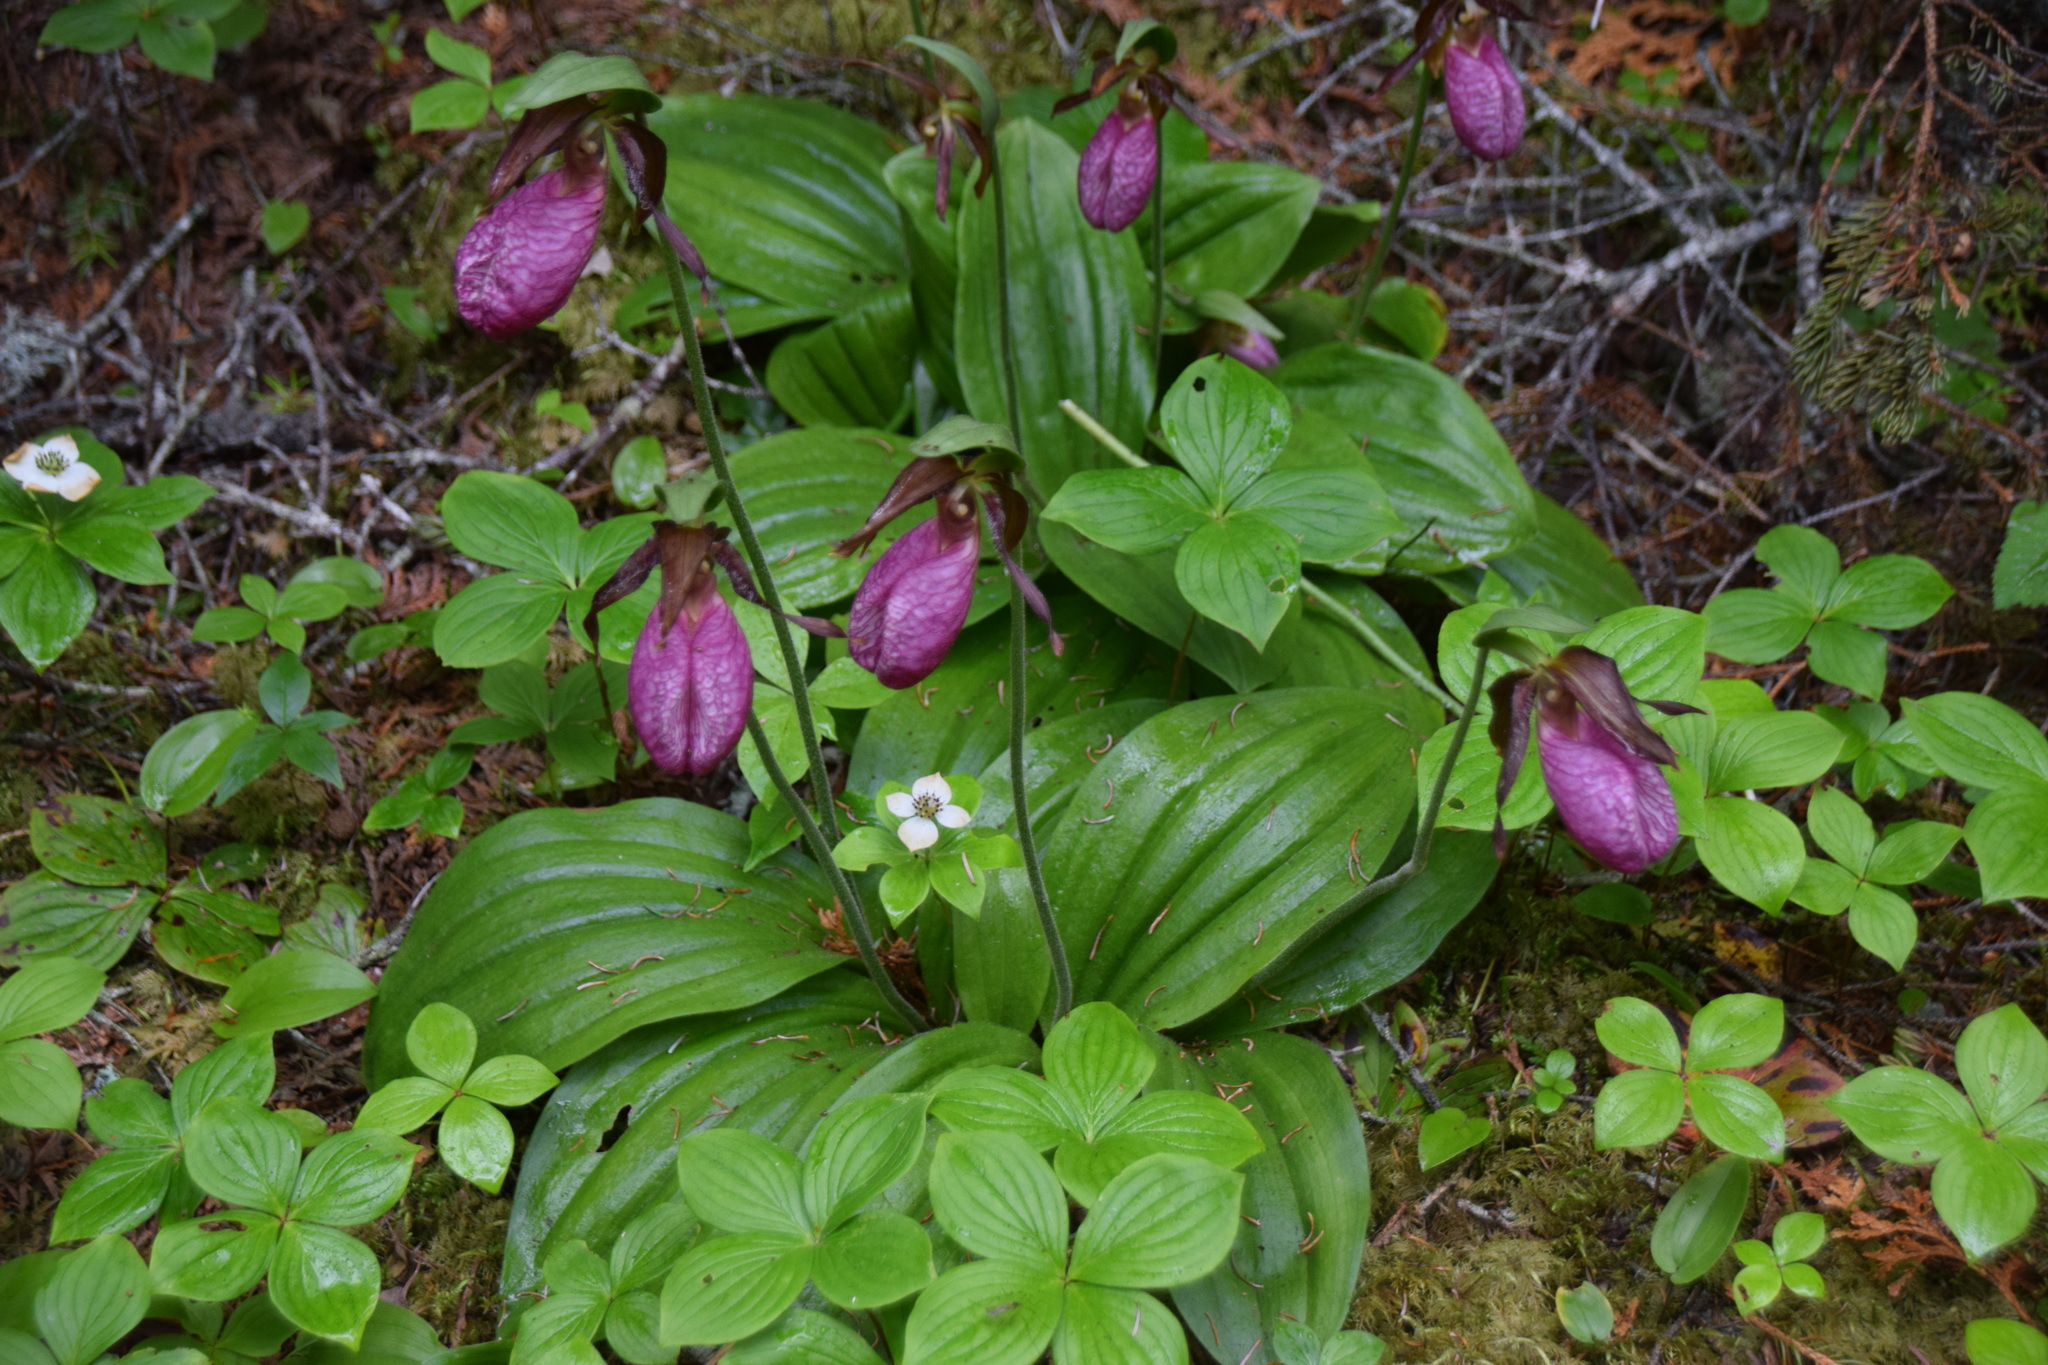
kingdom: Plantae
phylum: Tracheophyta
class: Liliopsida
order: Asparagales
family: Orchidaceae
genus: Cypripedium
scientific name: Cypripedium acaule
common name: Pink lady's-slipper
